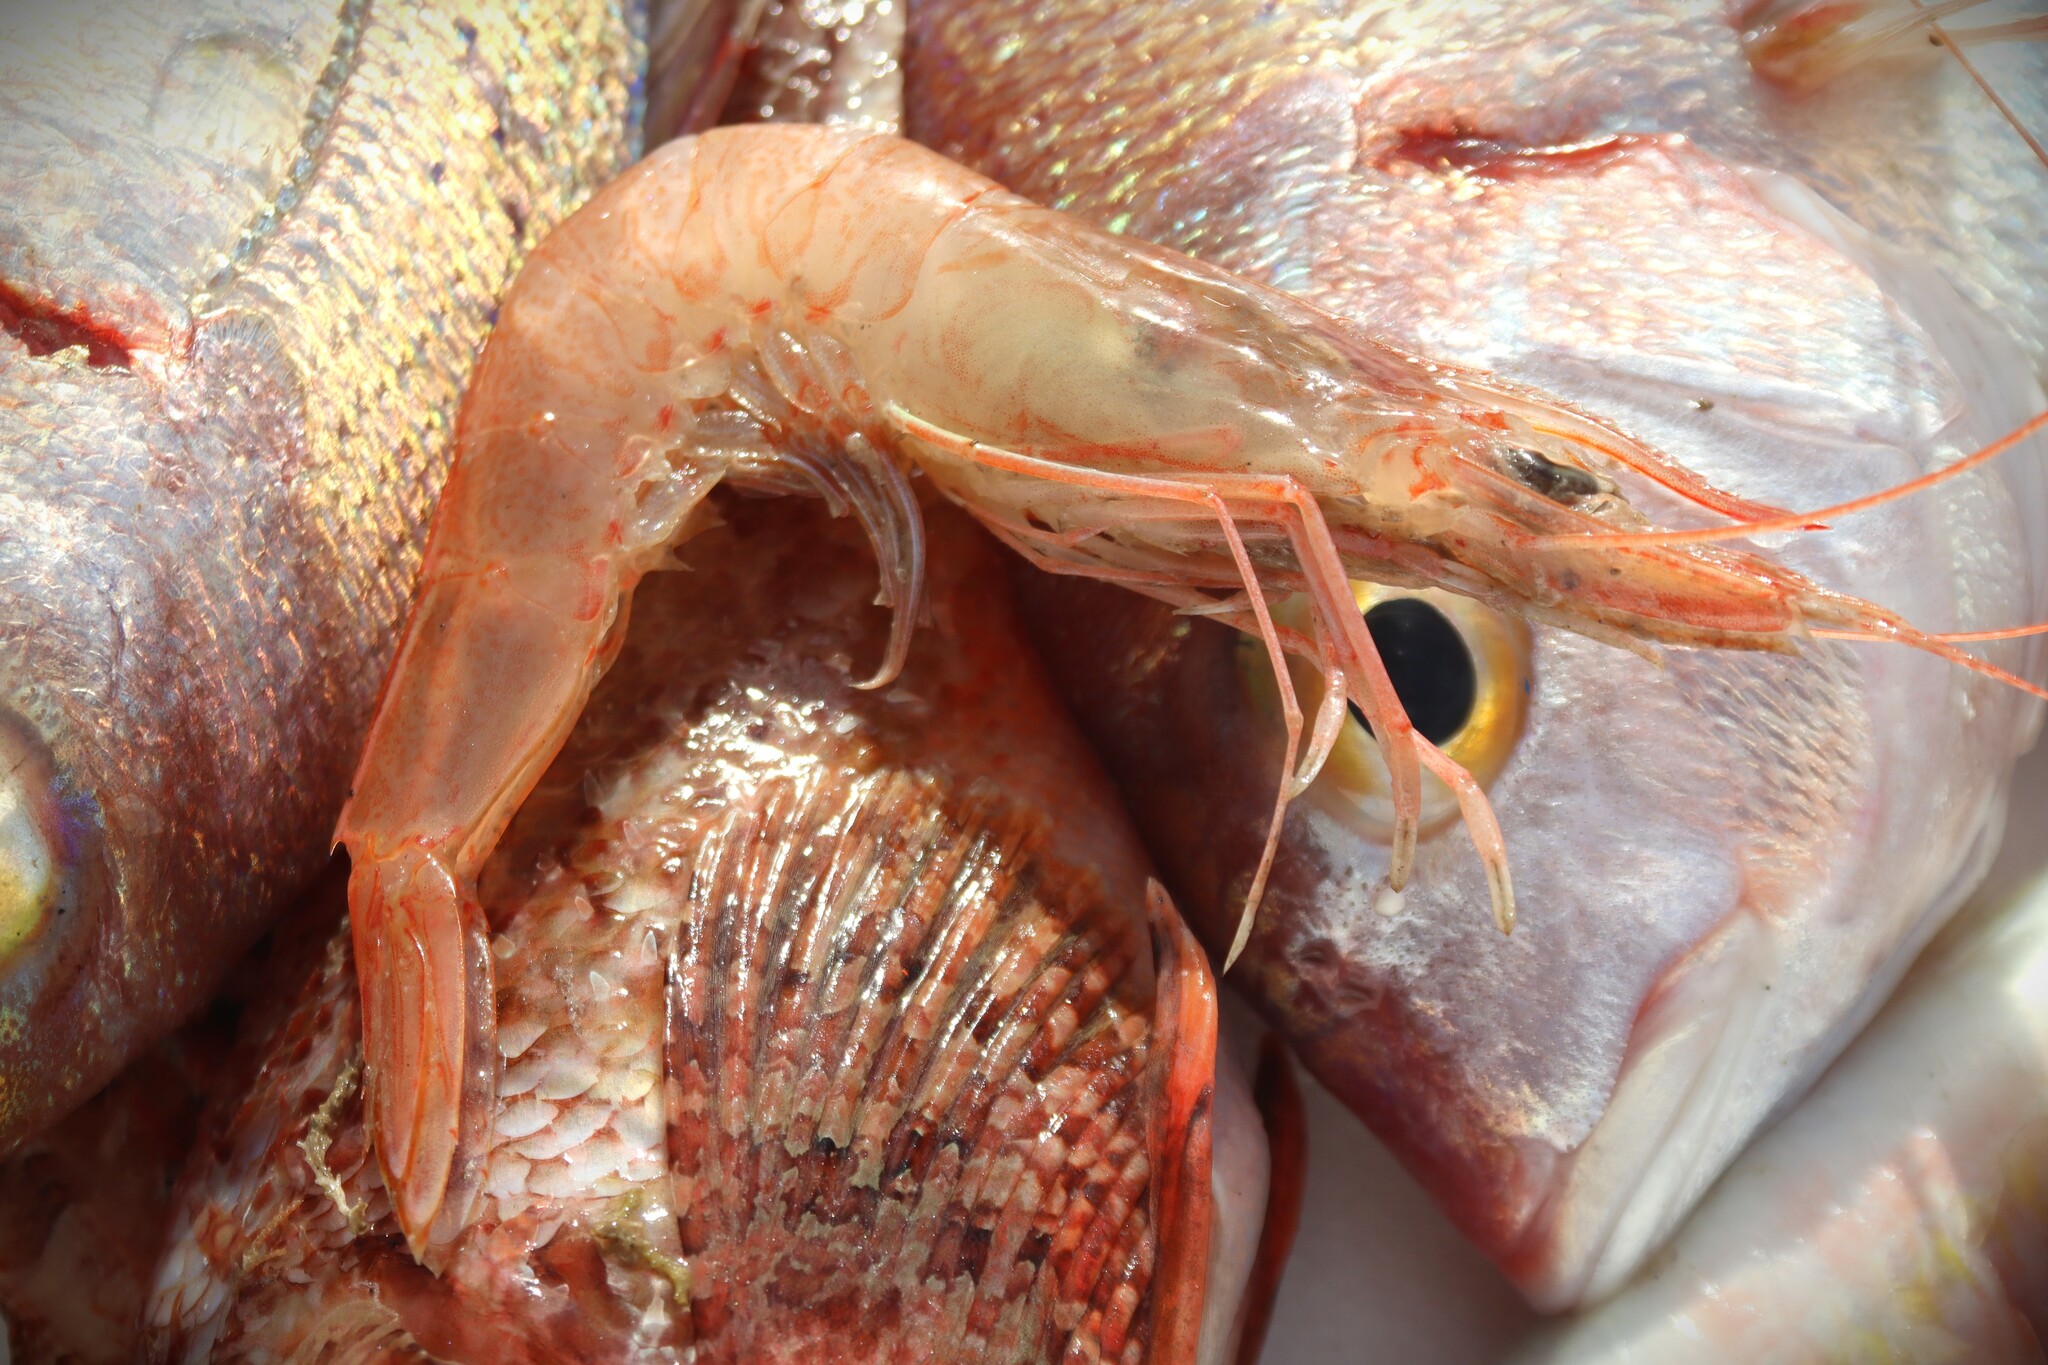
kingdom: Animalia
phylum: Arthropoda
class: Malacostraca
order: Decapoda
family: Penaeidae
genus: Parapenaeus
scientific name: Parapenaeus longirostris
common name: Deep-water rose shrimp
